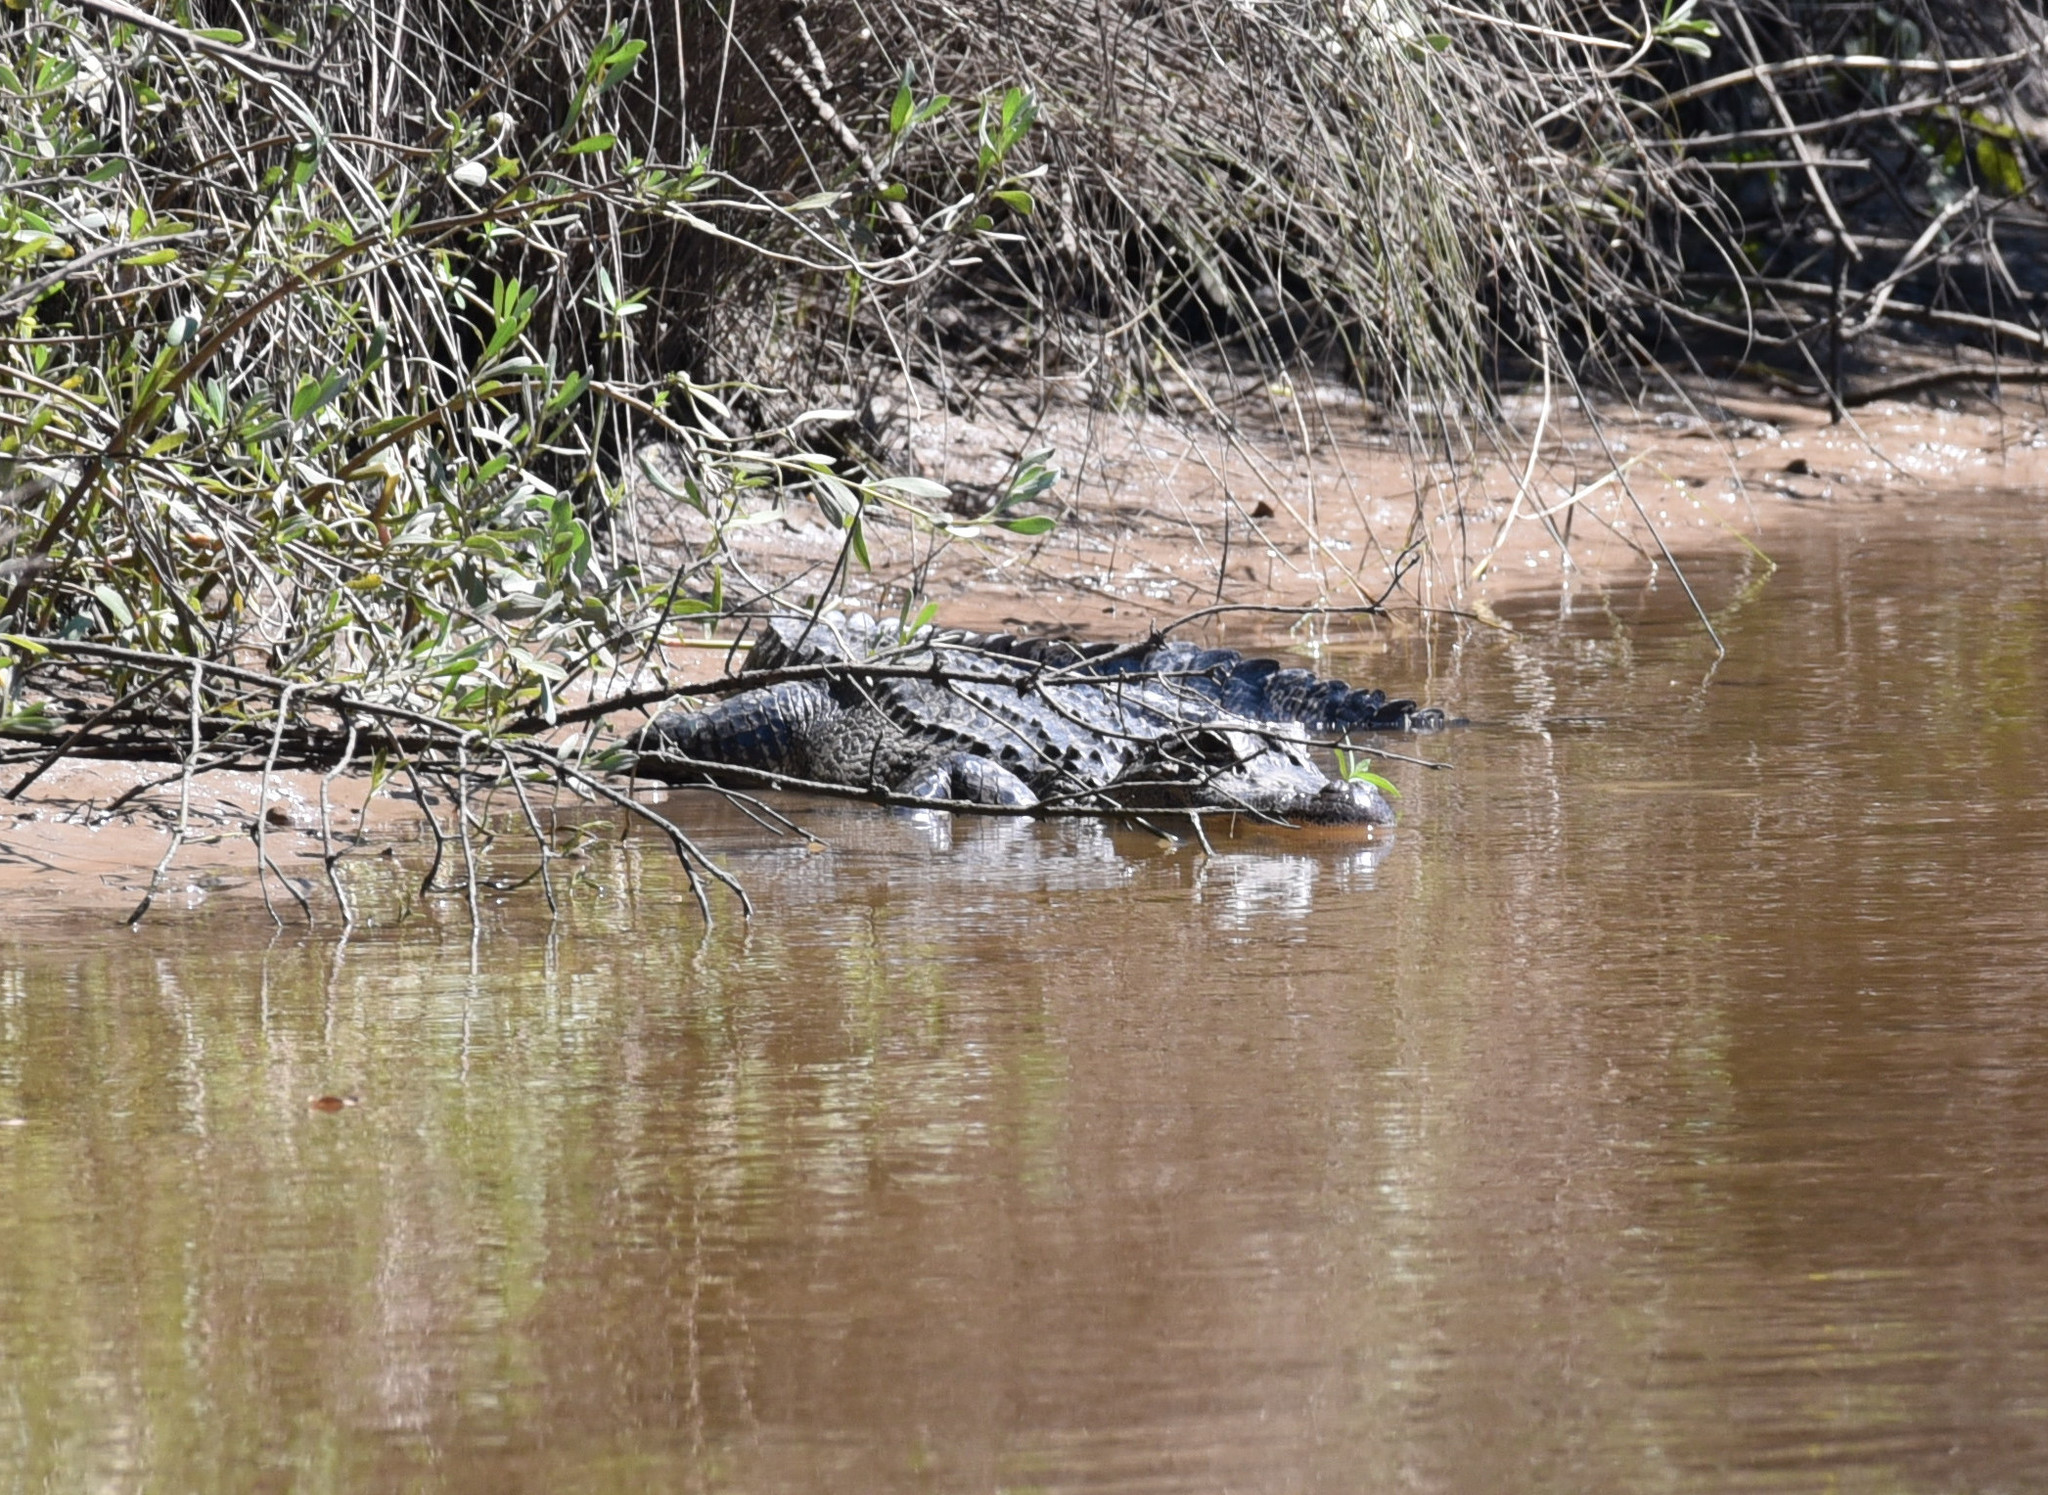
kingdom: Animalia
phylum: Chordata
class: Crocodylia
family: Alligatoridae
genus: Alligator
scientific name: Alligator mississippiensis
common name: American alligator
